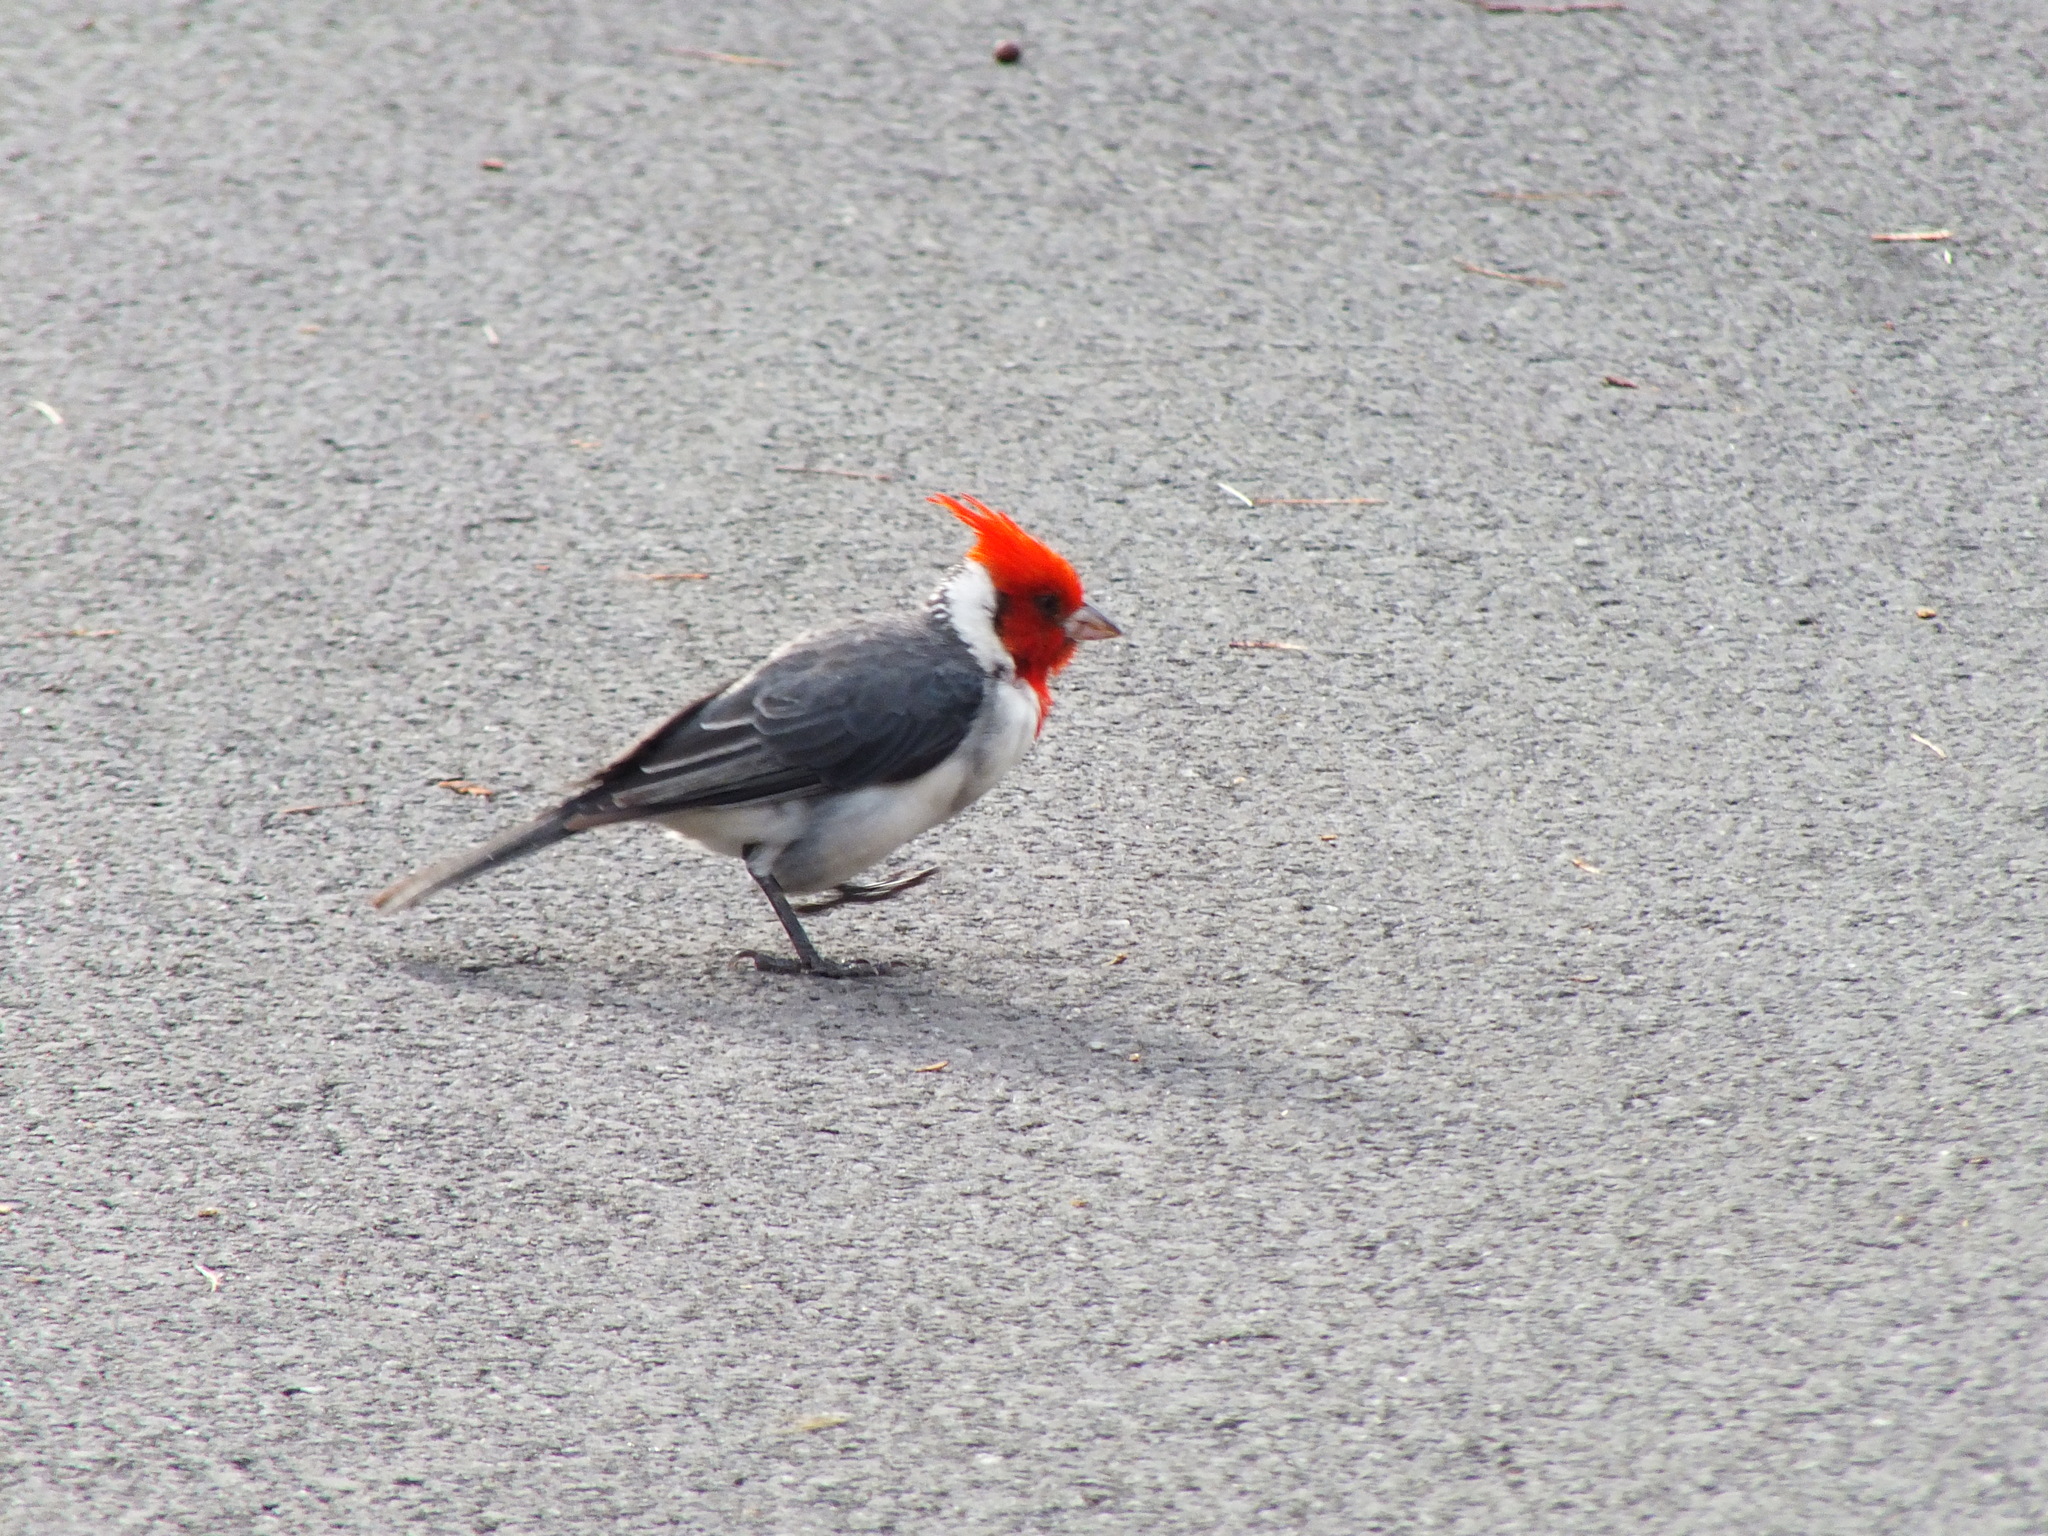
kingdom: Animalia
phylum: Chordata
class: Aves
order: Passeriformes
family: Thraupidae
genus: Paroaria
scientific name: Paroaria coronata
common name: Red-crested cardinal
